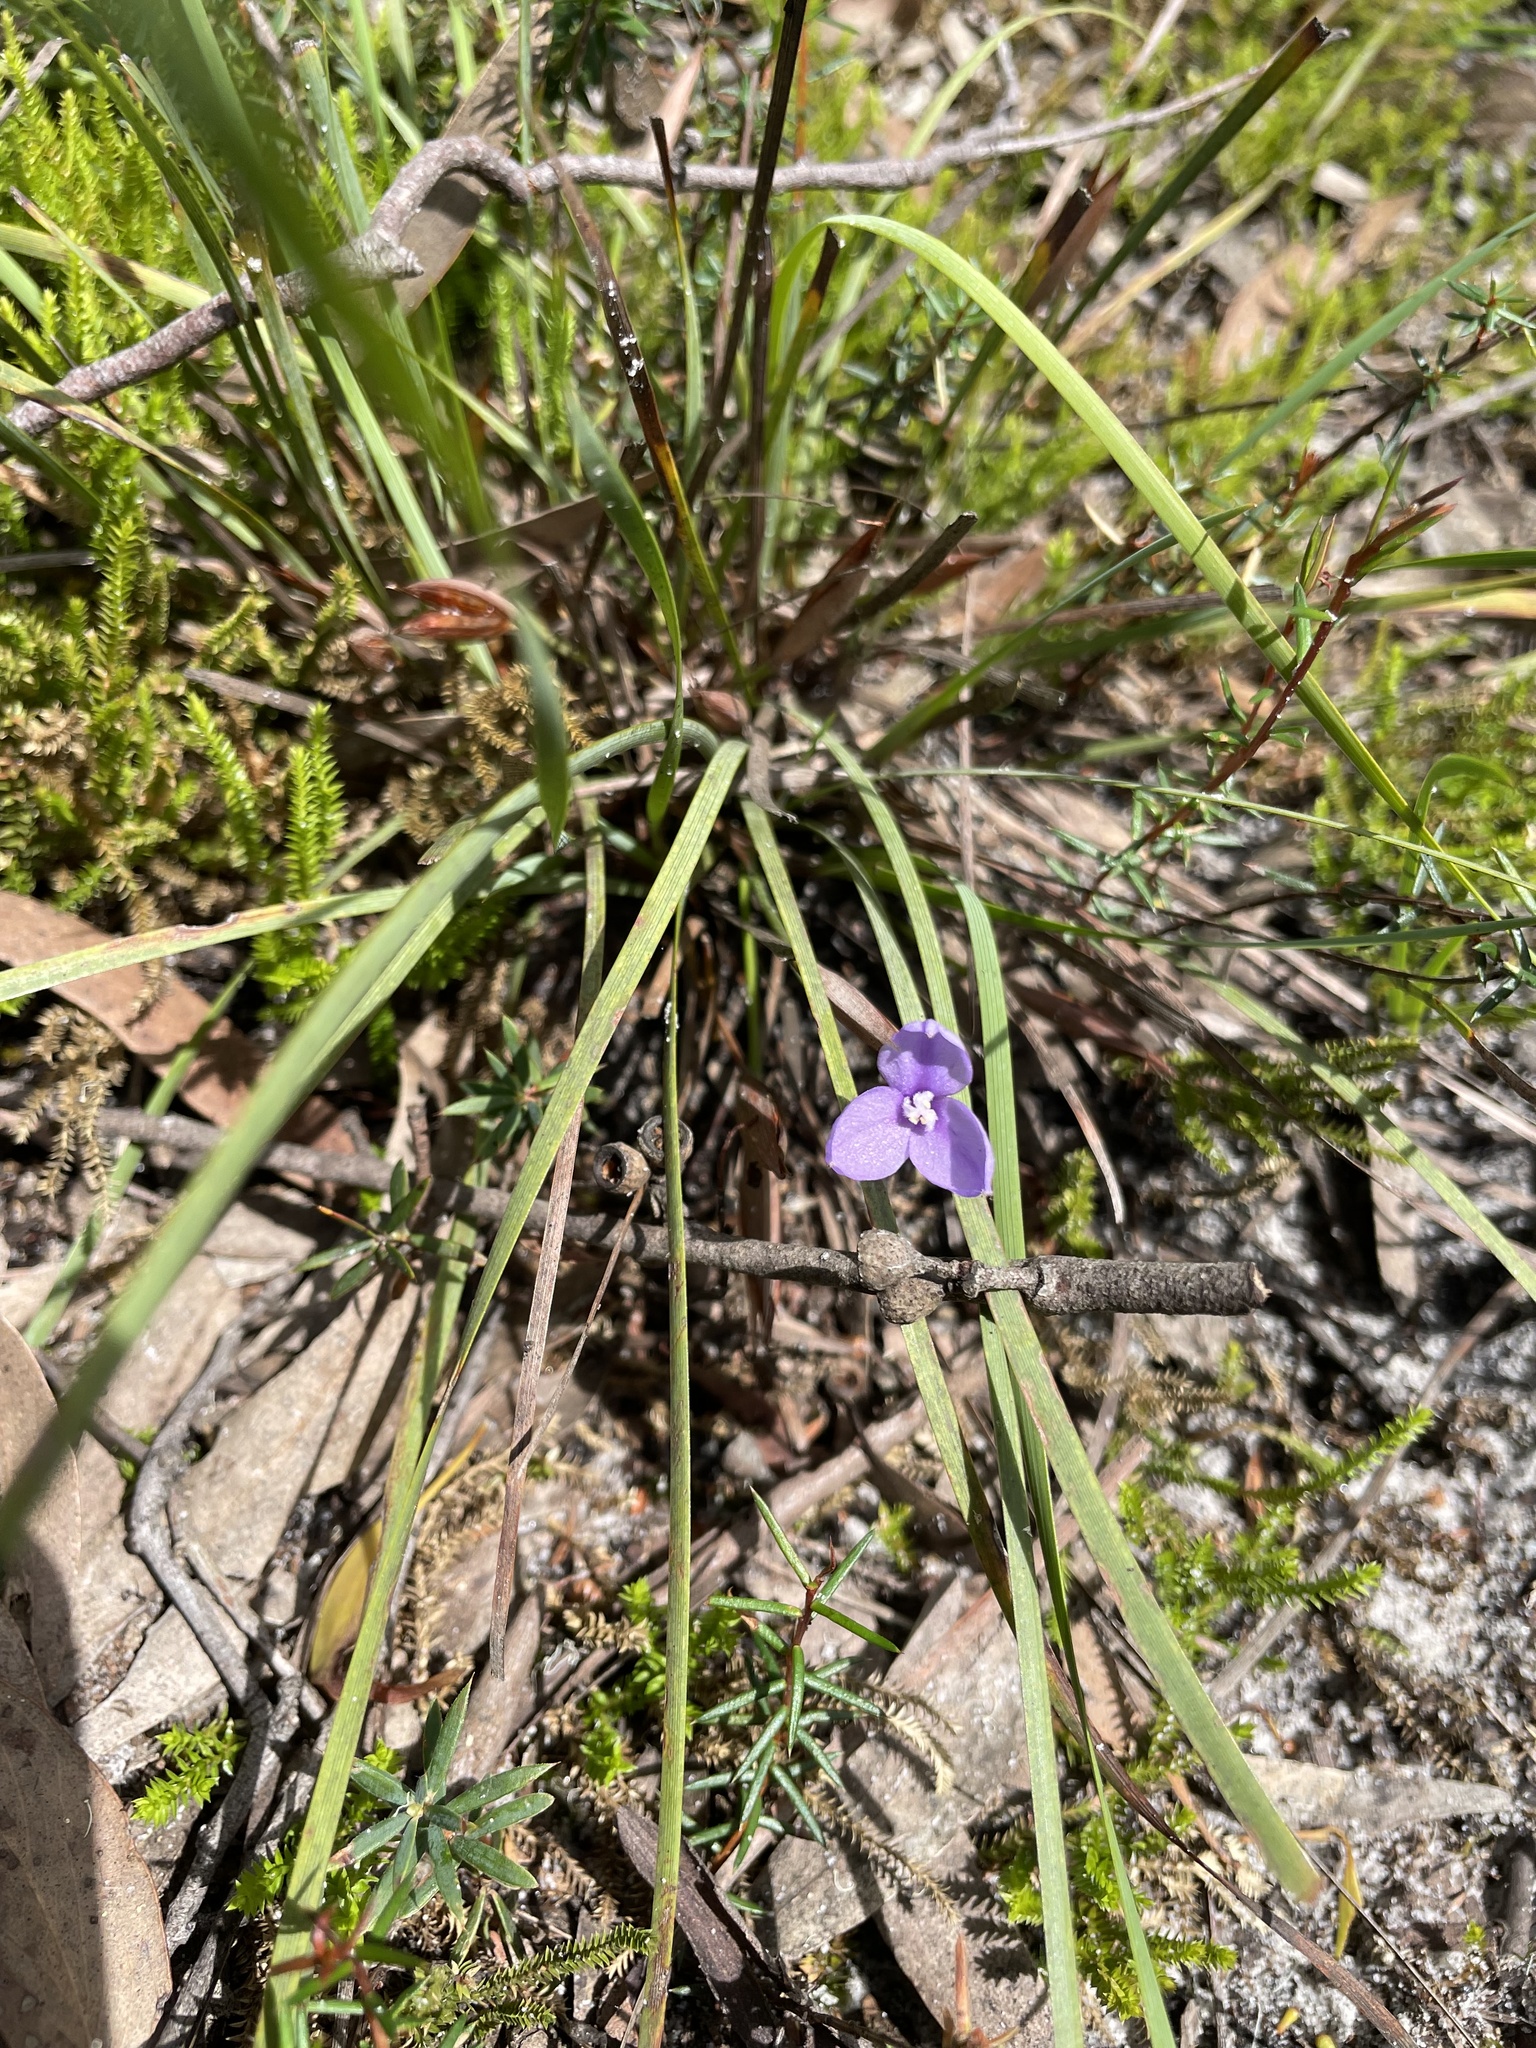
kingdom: Plantae
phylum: Tracheophyta
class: Liliopsida
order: Asparagales
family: Iridaceae
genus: Patersonia
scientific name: Patersonia fragilis
